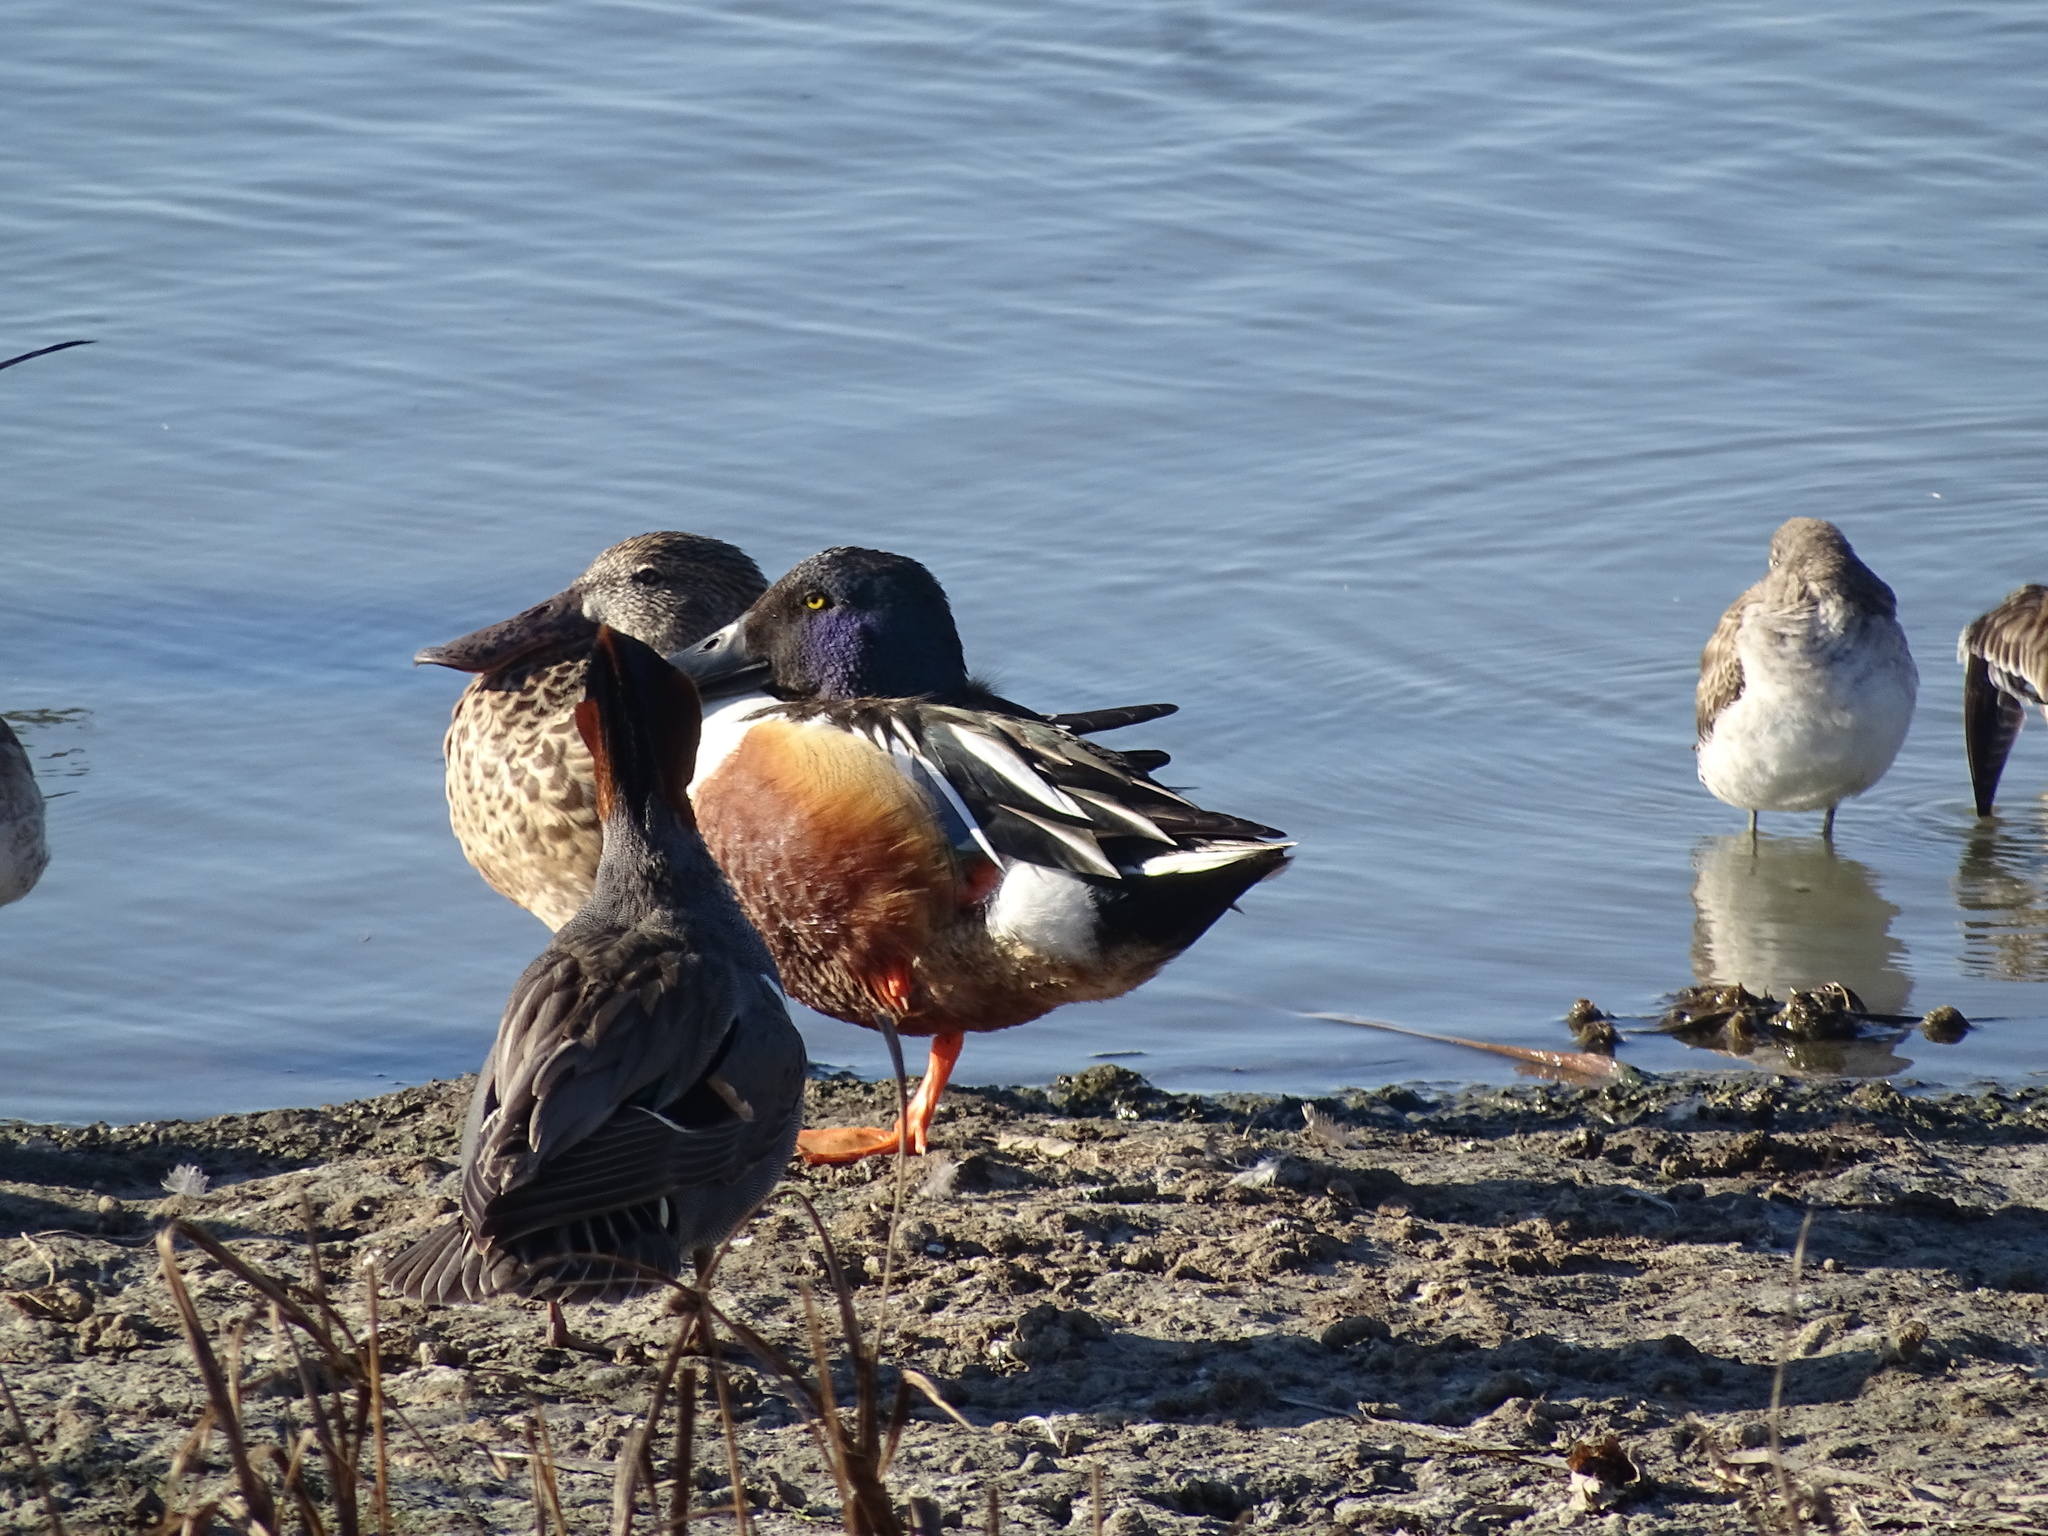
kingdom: Animalia
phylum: Chordata
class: Aves
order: Anseriformes
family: Anatidae
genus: Spatula
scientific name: Spatula clypeata
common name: Northern shoveler
